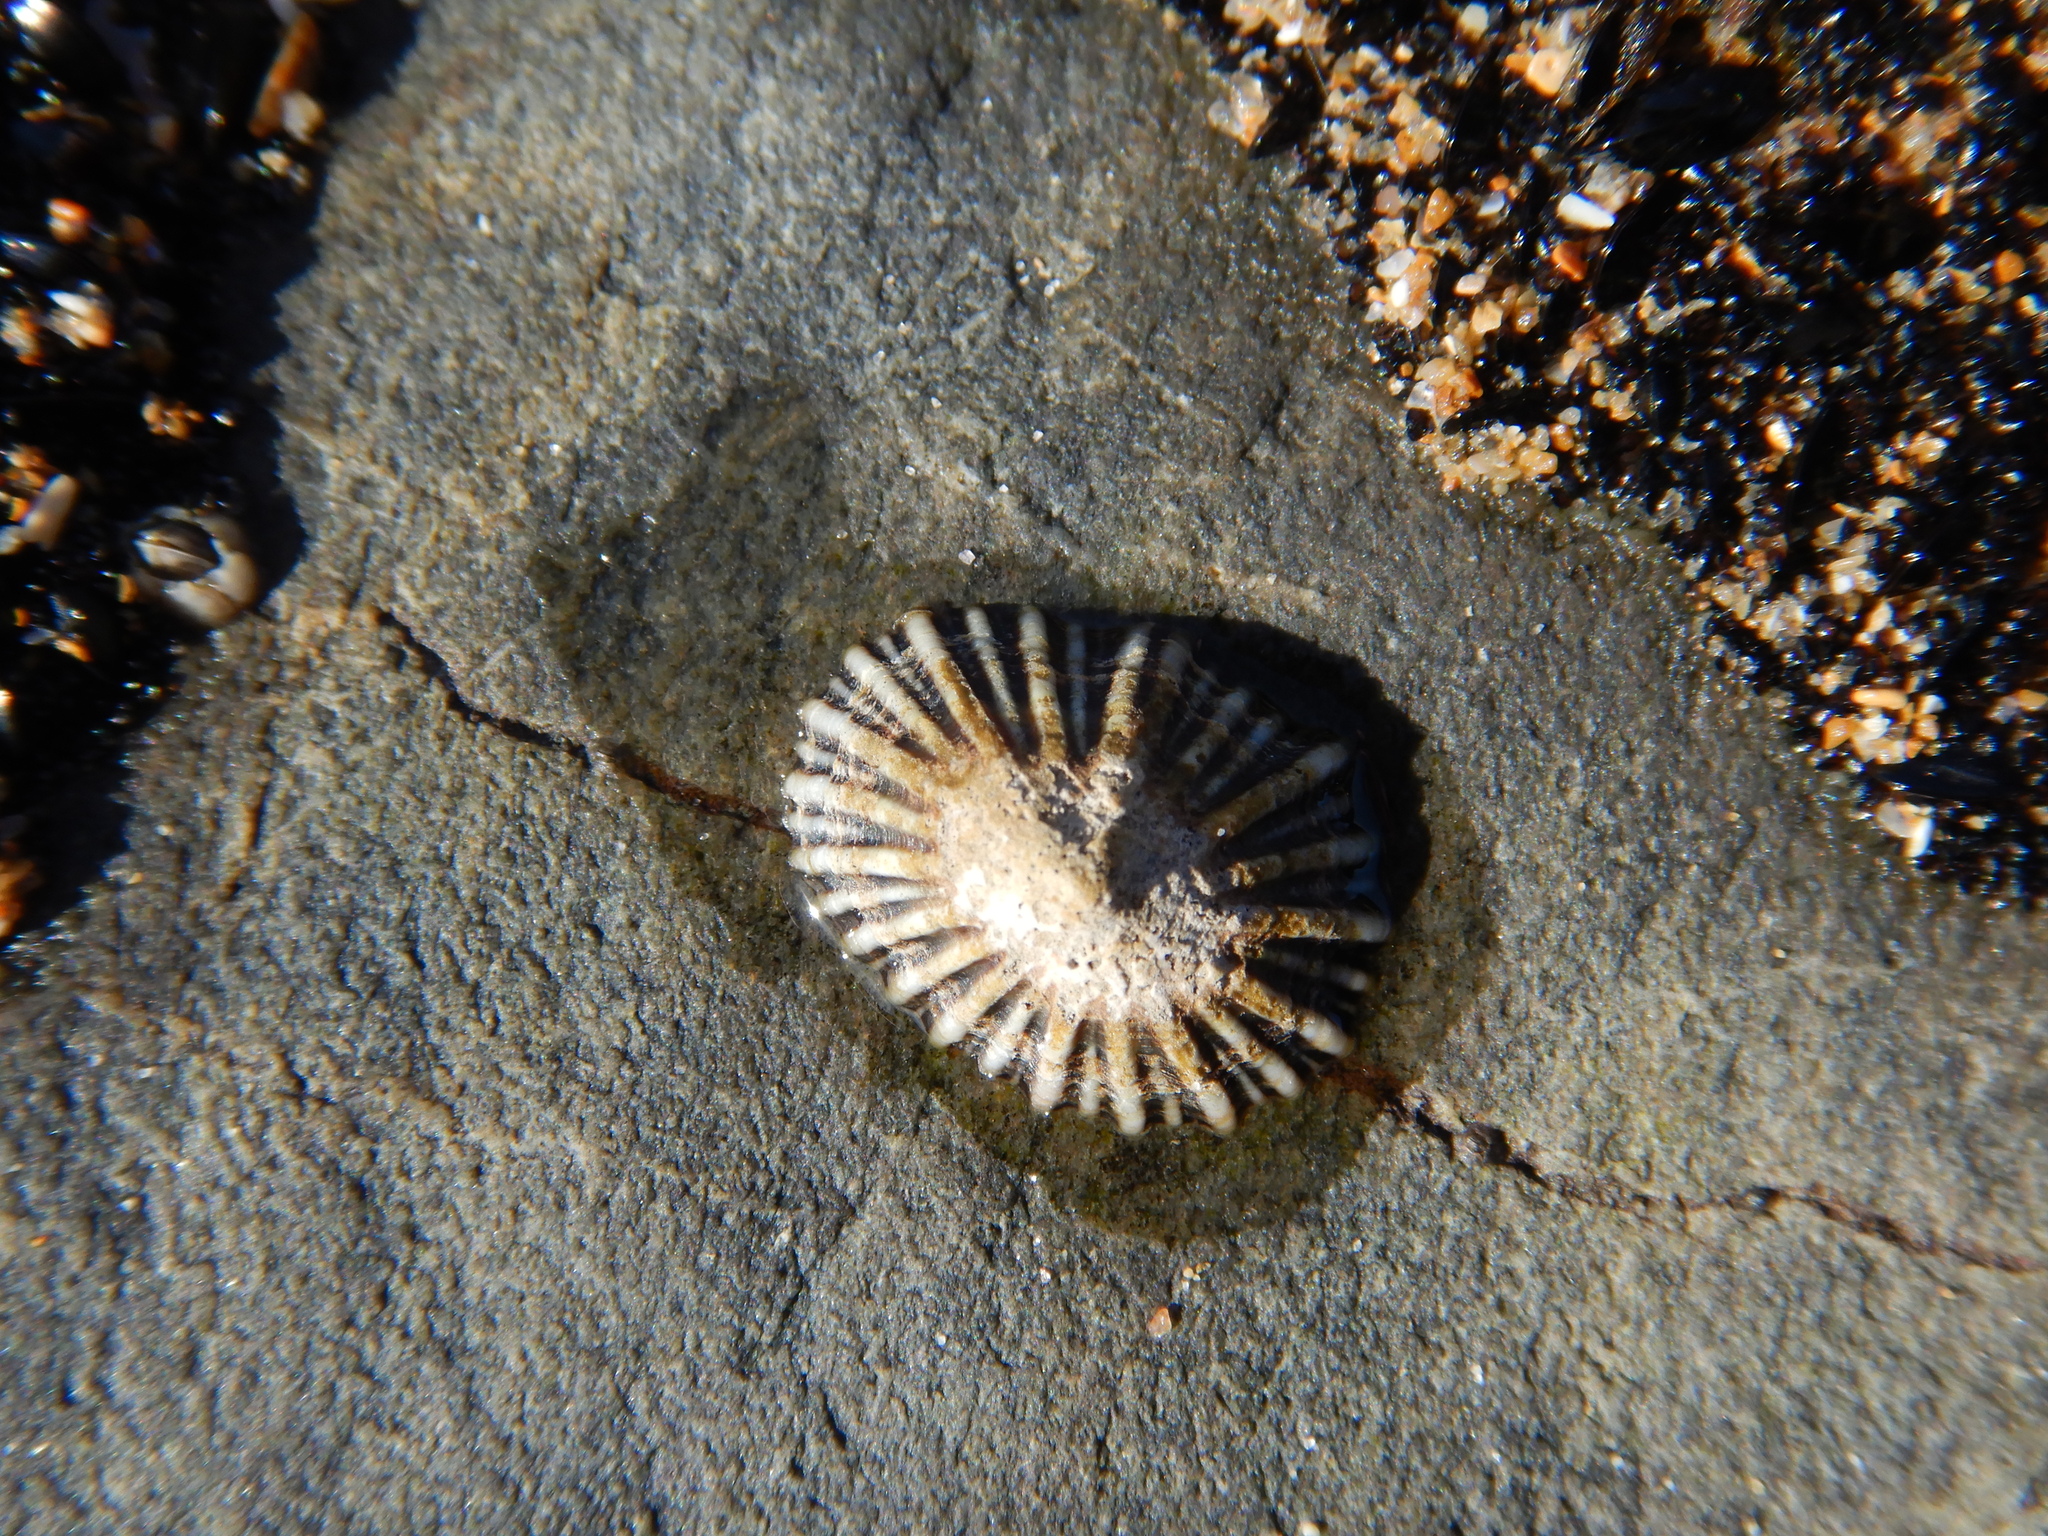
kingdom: Animalia
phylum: Mollusca
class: Gastropoda
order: Siphonariida
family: Siphonariidae
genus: Siphonaria
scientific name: Siphonaria diemenensis
